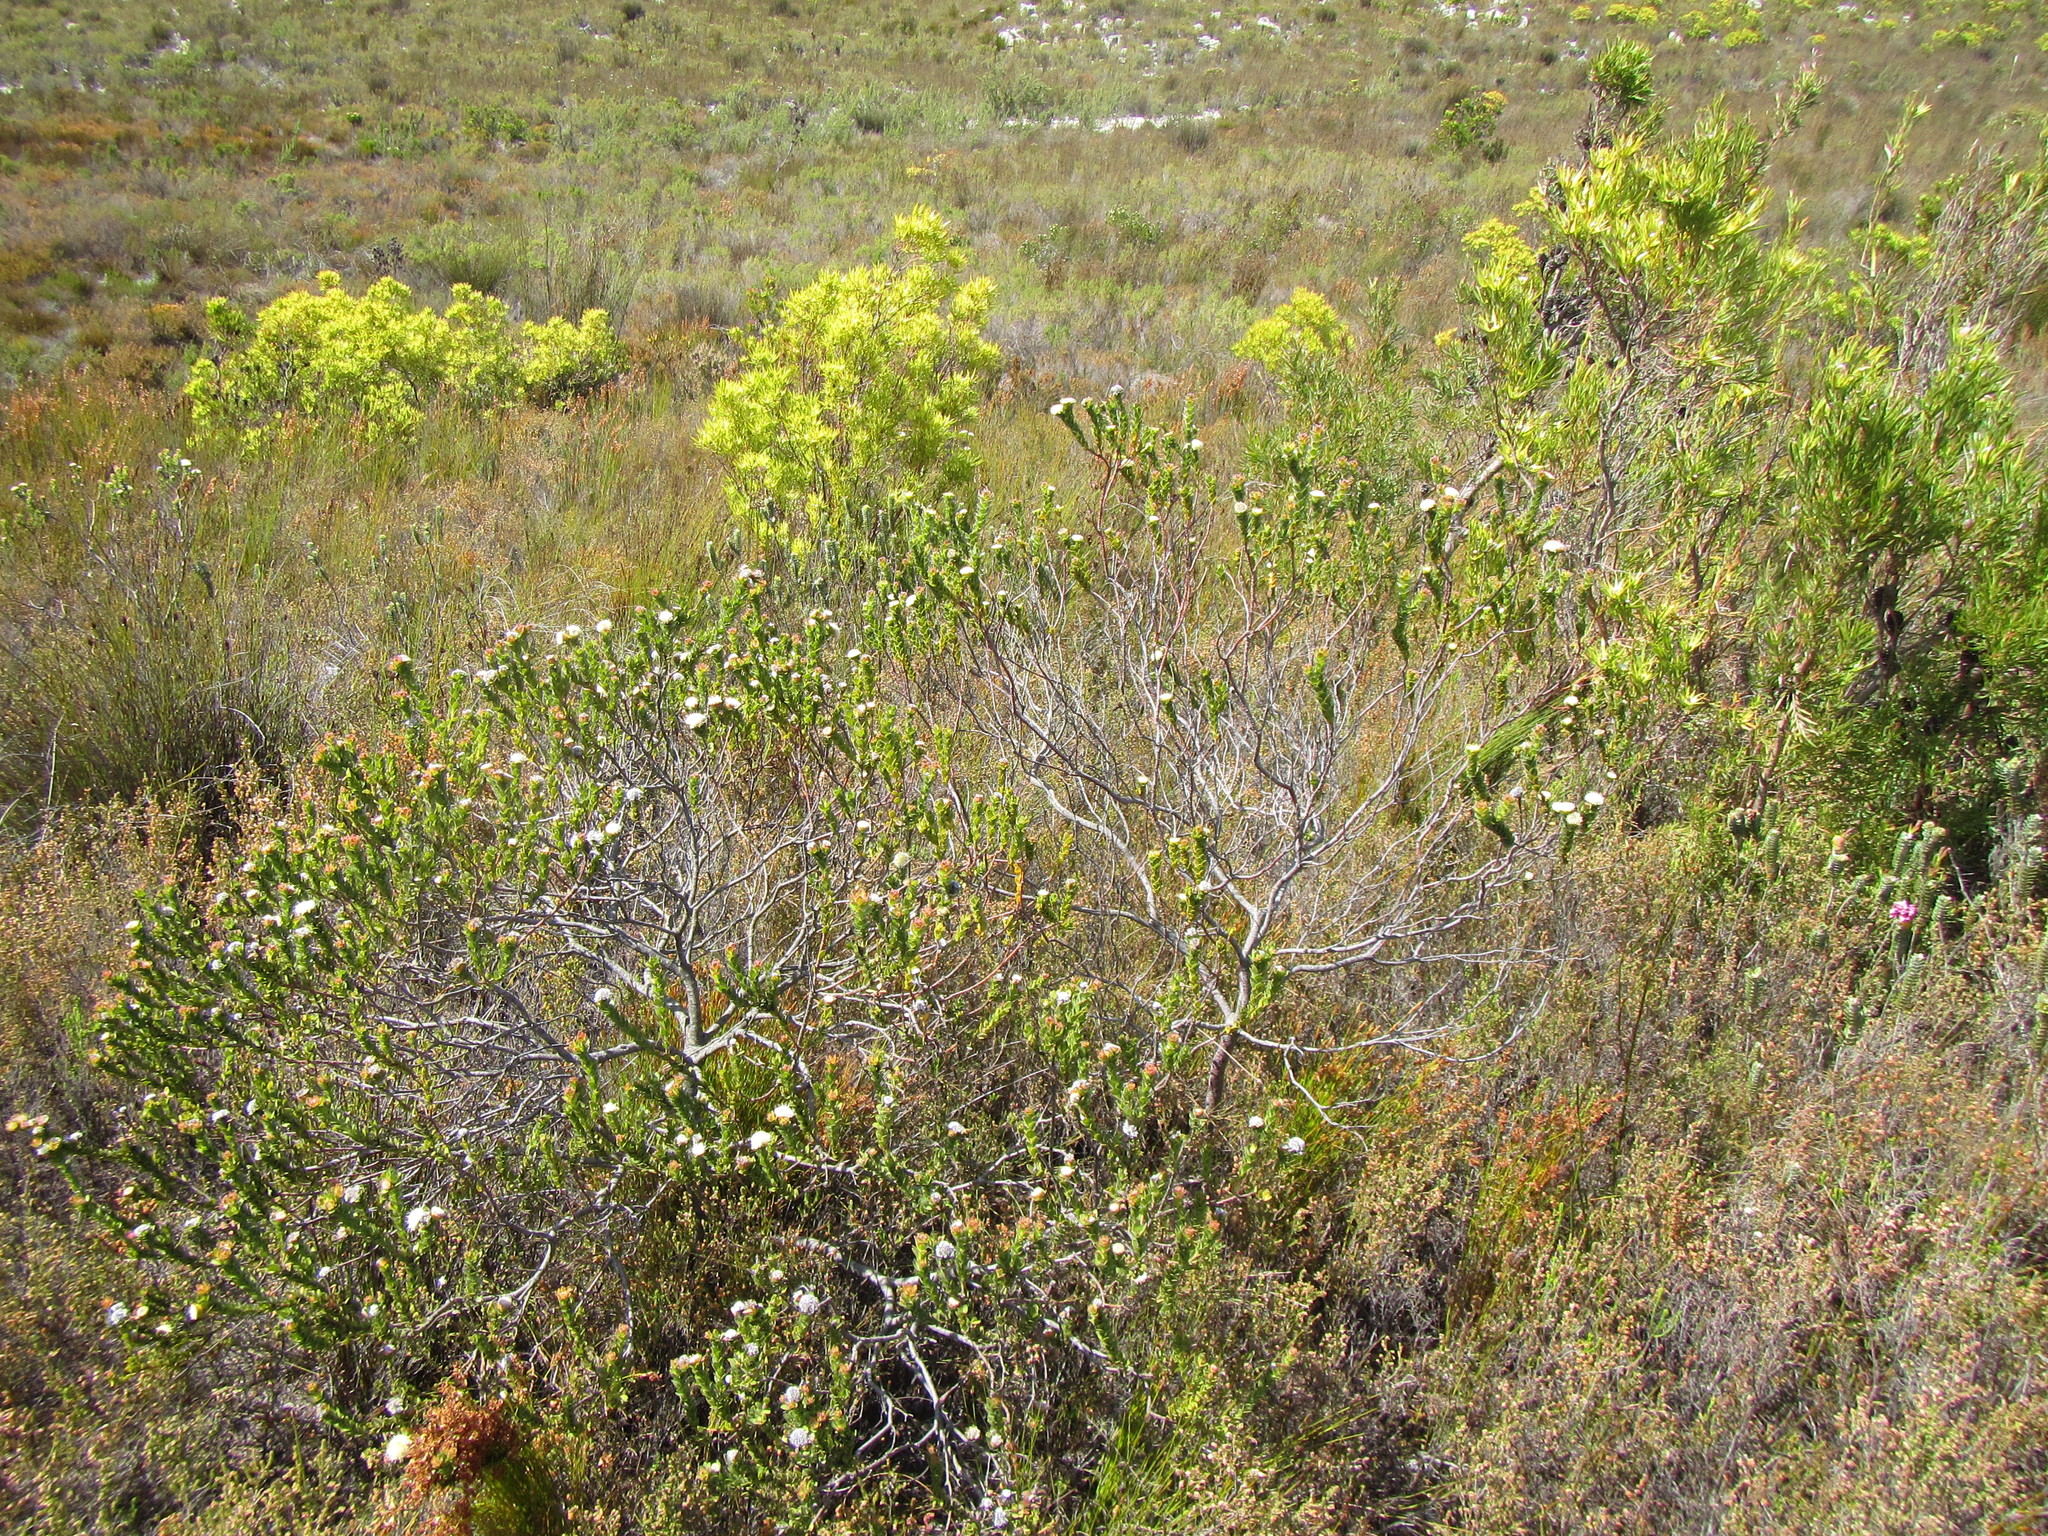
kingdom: Plantae
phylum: Tracheophyta
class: Magnoliopsida
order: Proteales
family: Proteaceae
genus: Diastella
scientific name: Diastella thymelaeoides
